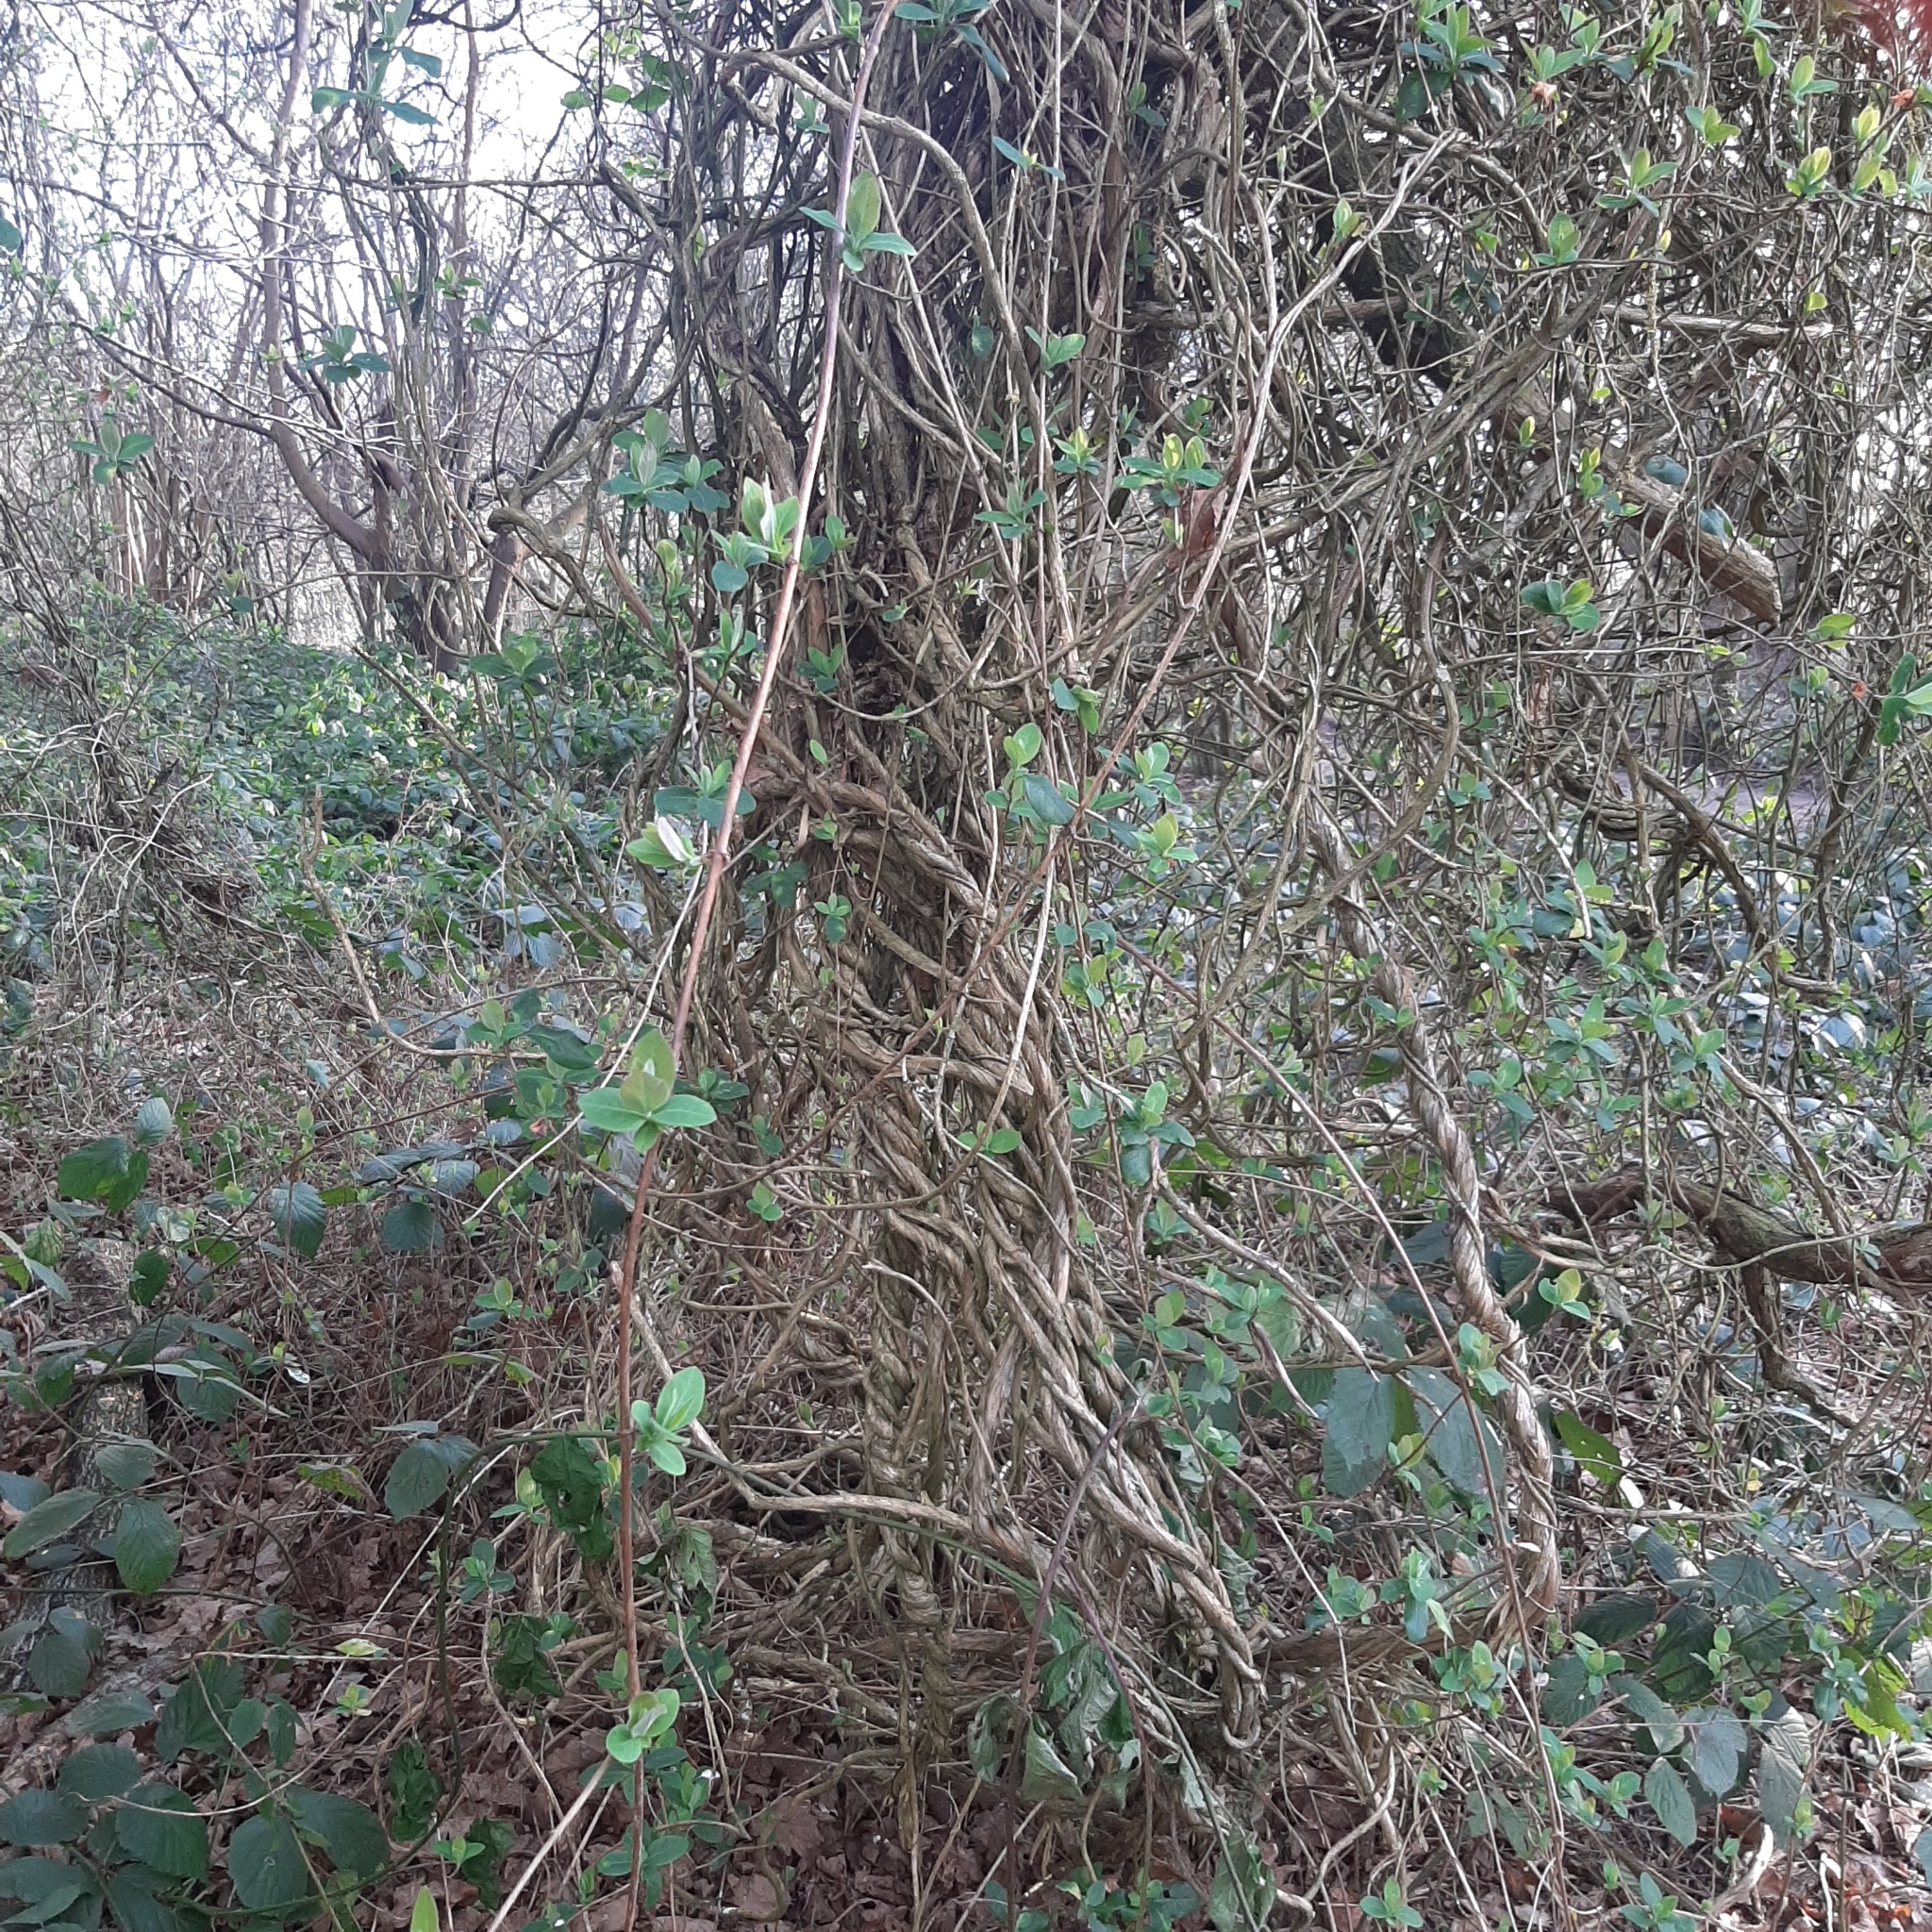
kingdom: Plantae
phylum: Tracheophyta
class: Magnoliopsida
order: Dipsacales
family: Caprifoliaceae
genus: Lonicera
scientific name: Lonicera periclymenum
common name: European honeysuckle
